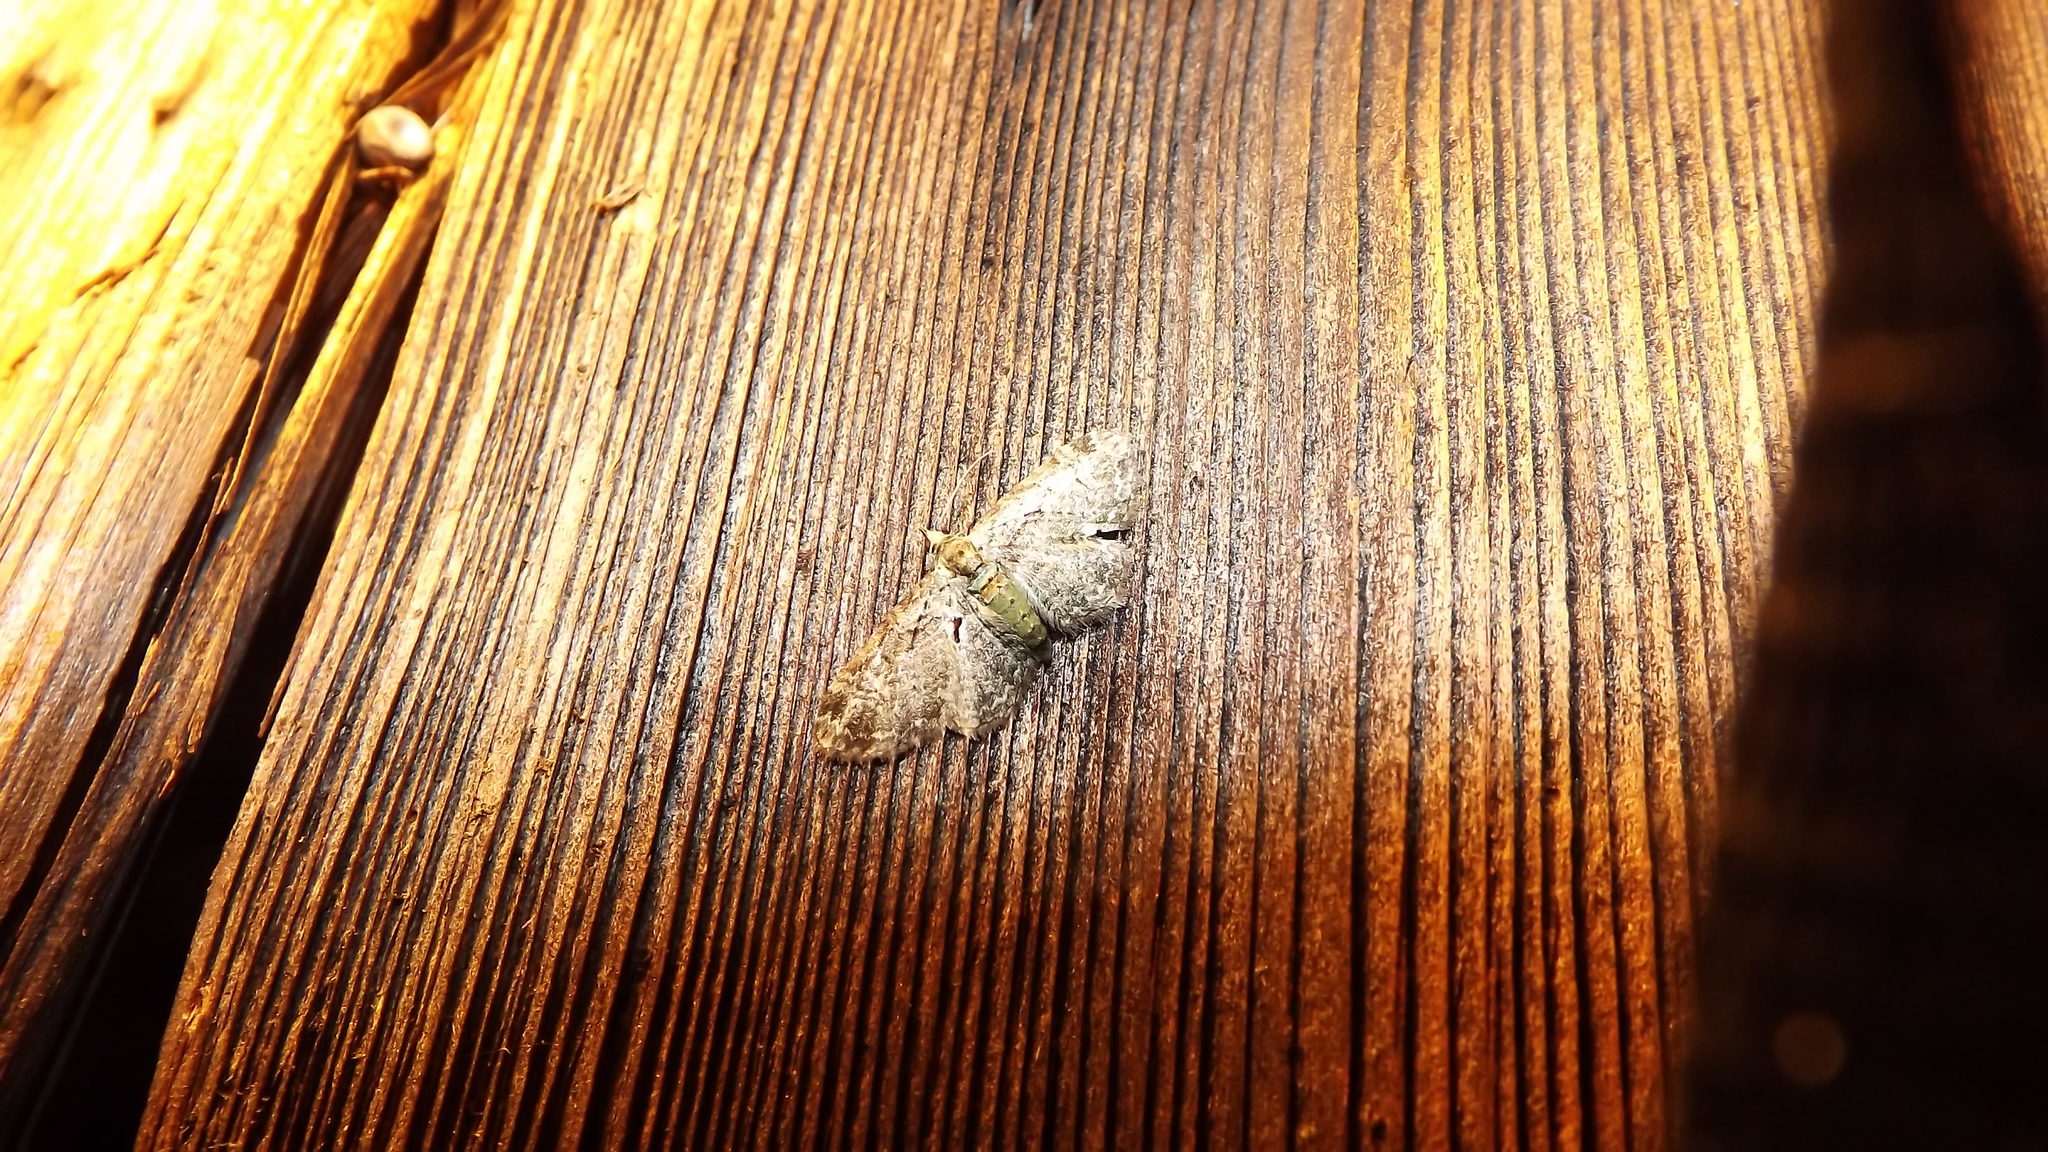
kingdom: Animalia
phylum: Arthropoda
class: Insecta
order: Lepidoptera
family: Geometridae
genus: Pasiphila
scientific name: Pasiphila rectangulata
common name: Green pug
